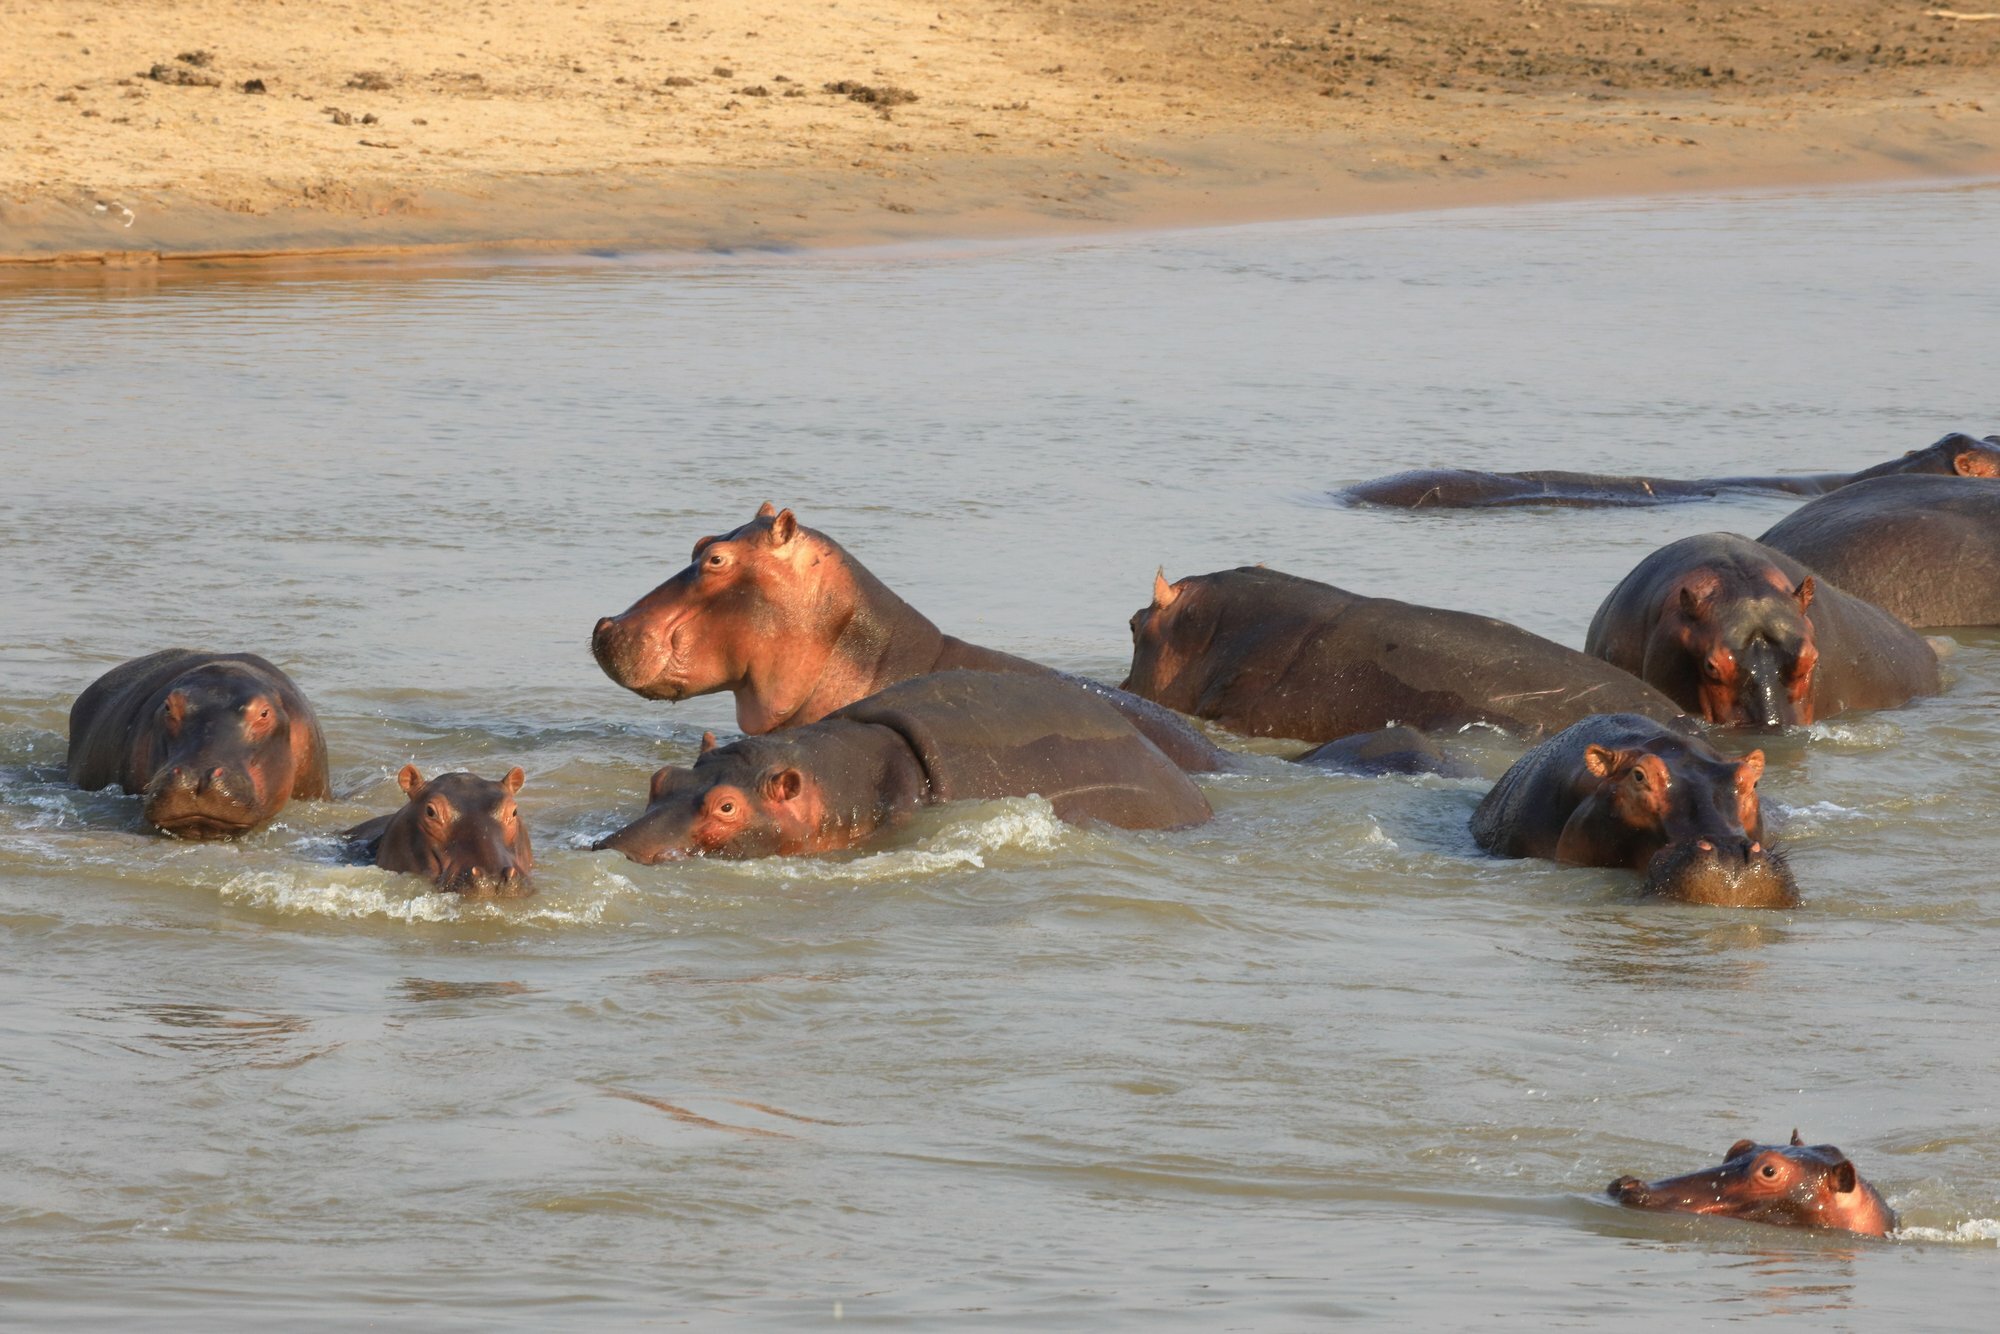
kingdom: Animalia
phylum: Chordata
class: Mammalia
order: Artiodactyla
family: Hippopotamidae
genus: Hippopotamus
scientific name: Hippopotamus amphibius
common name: Common hippopotamus
